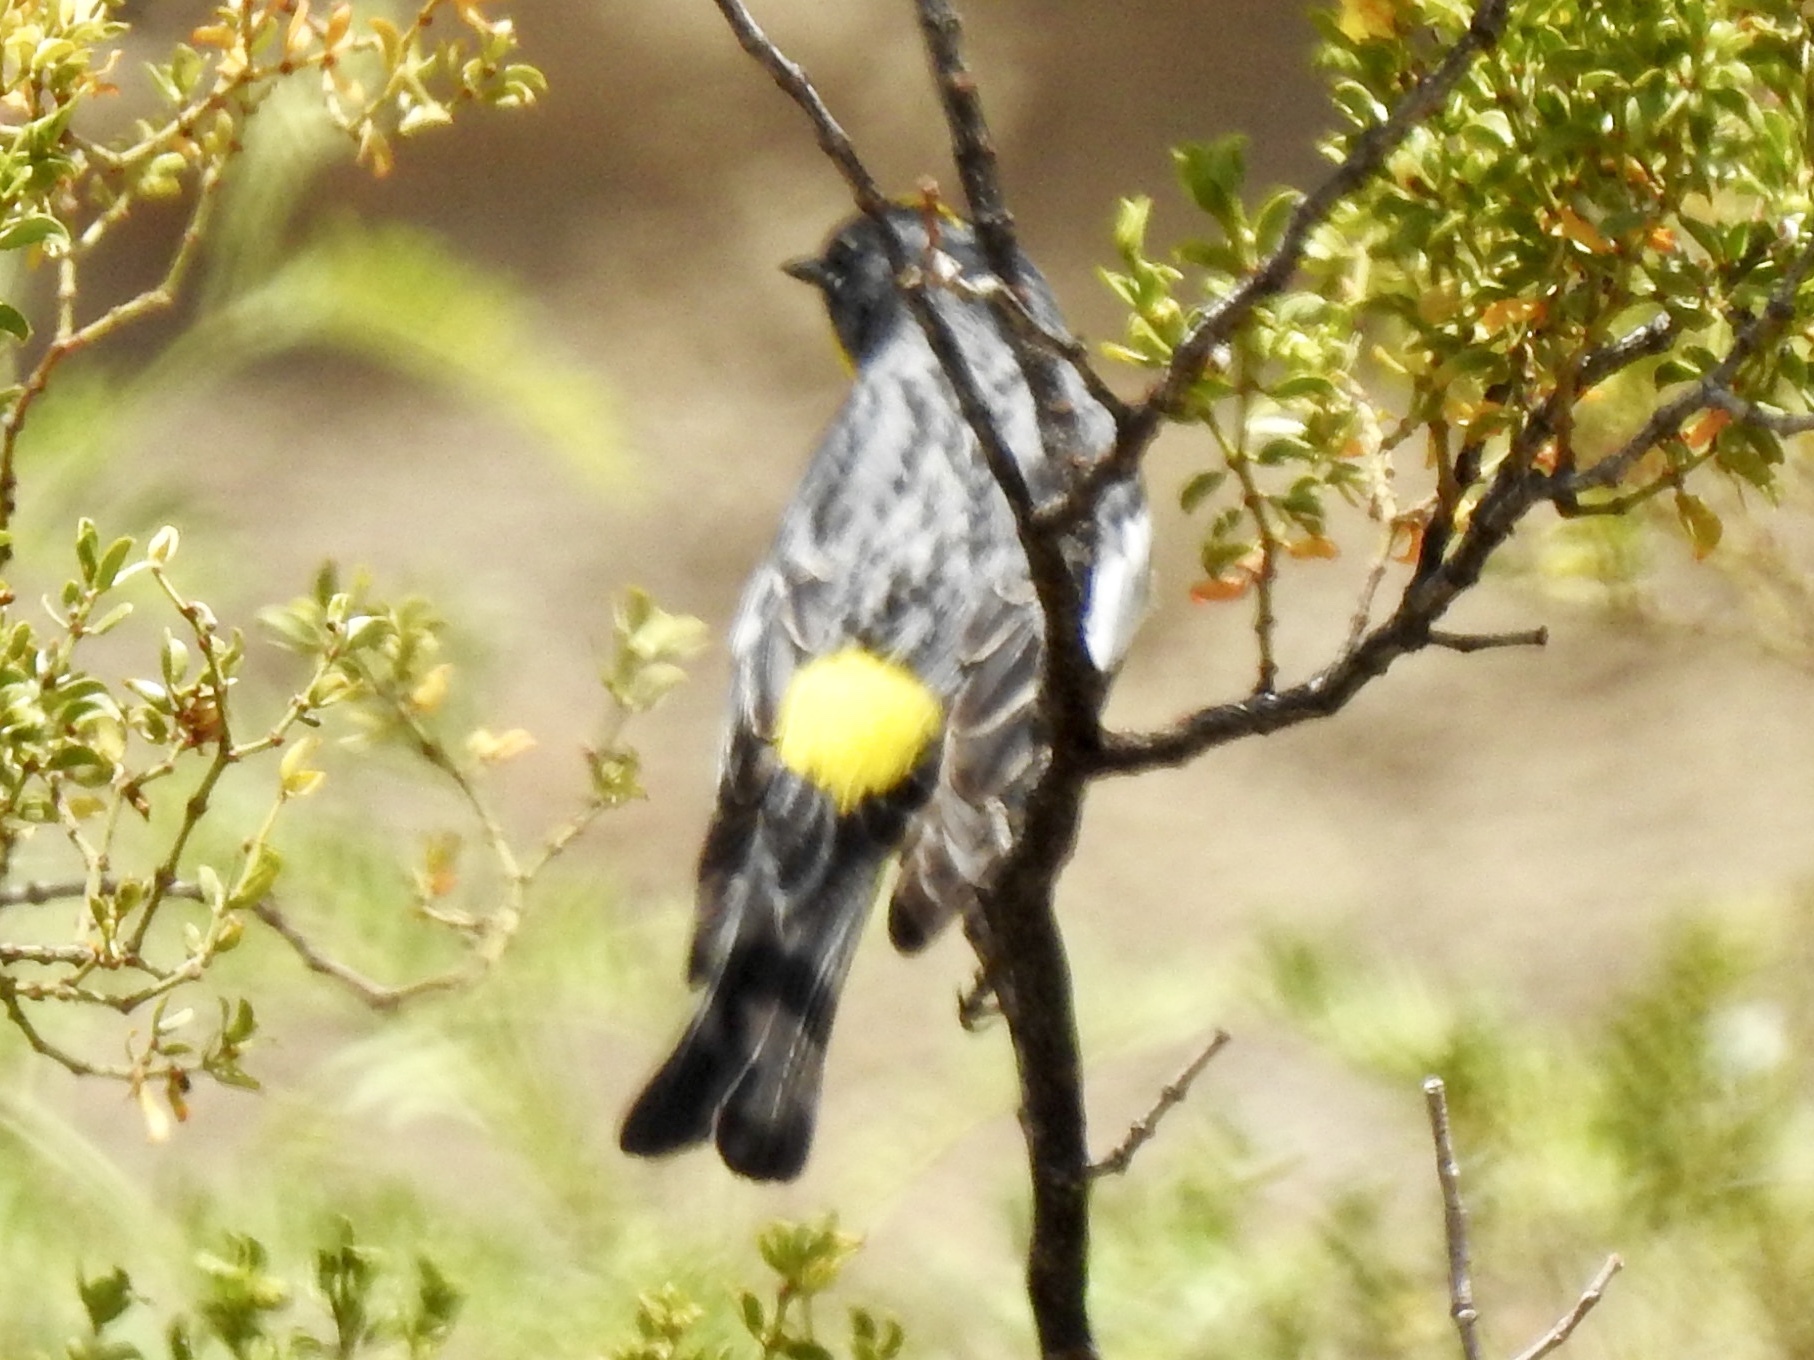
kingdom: Animalia
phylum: Chordata
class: Aves
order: Passeriformes
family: Parulidae
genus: Setophaga
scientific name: Setophaga coronata
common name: Myrtle warbler
